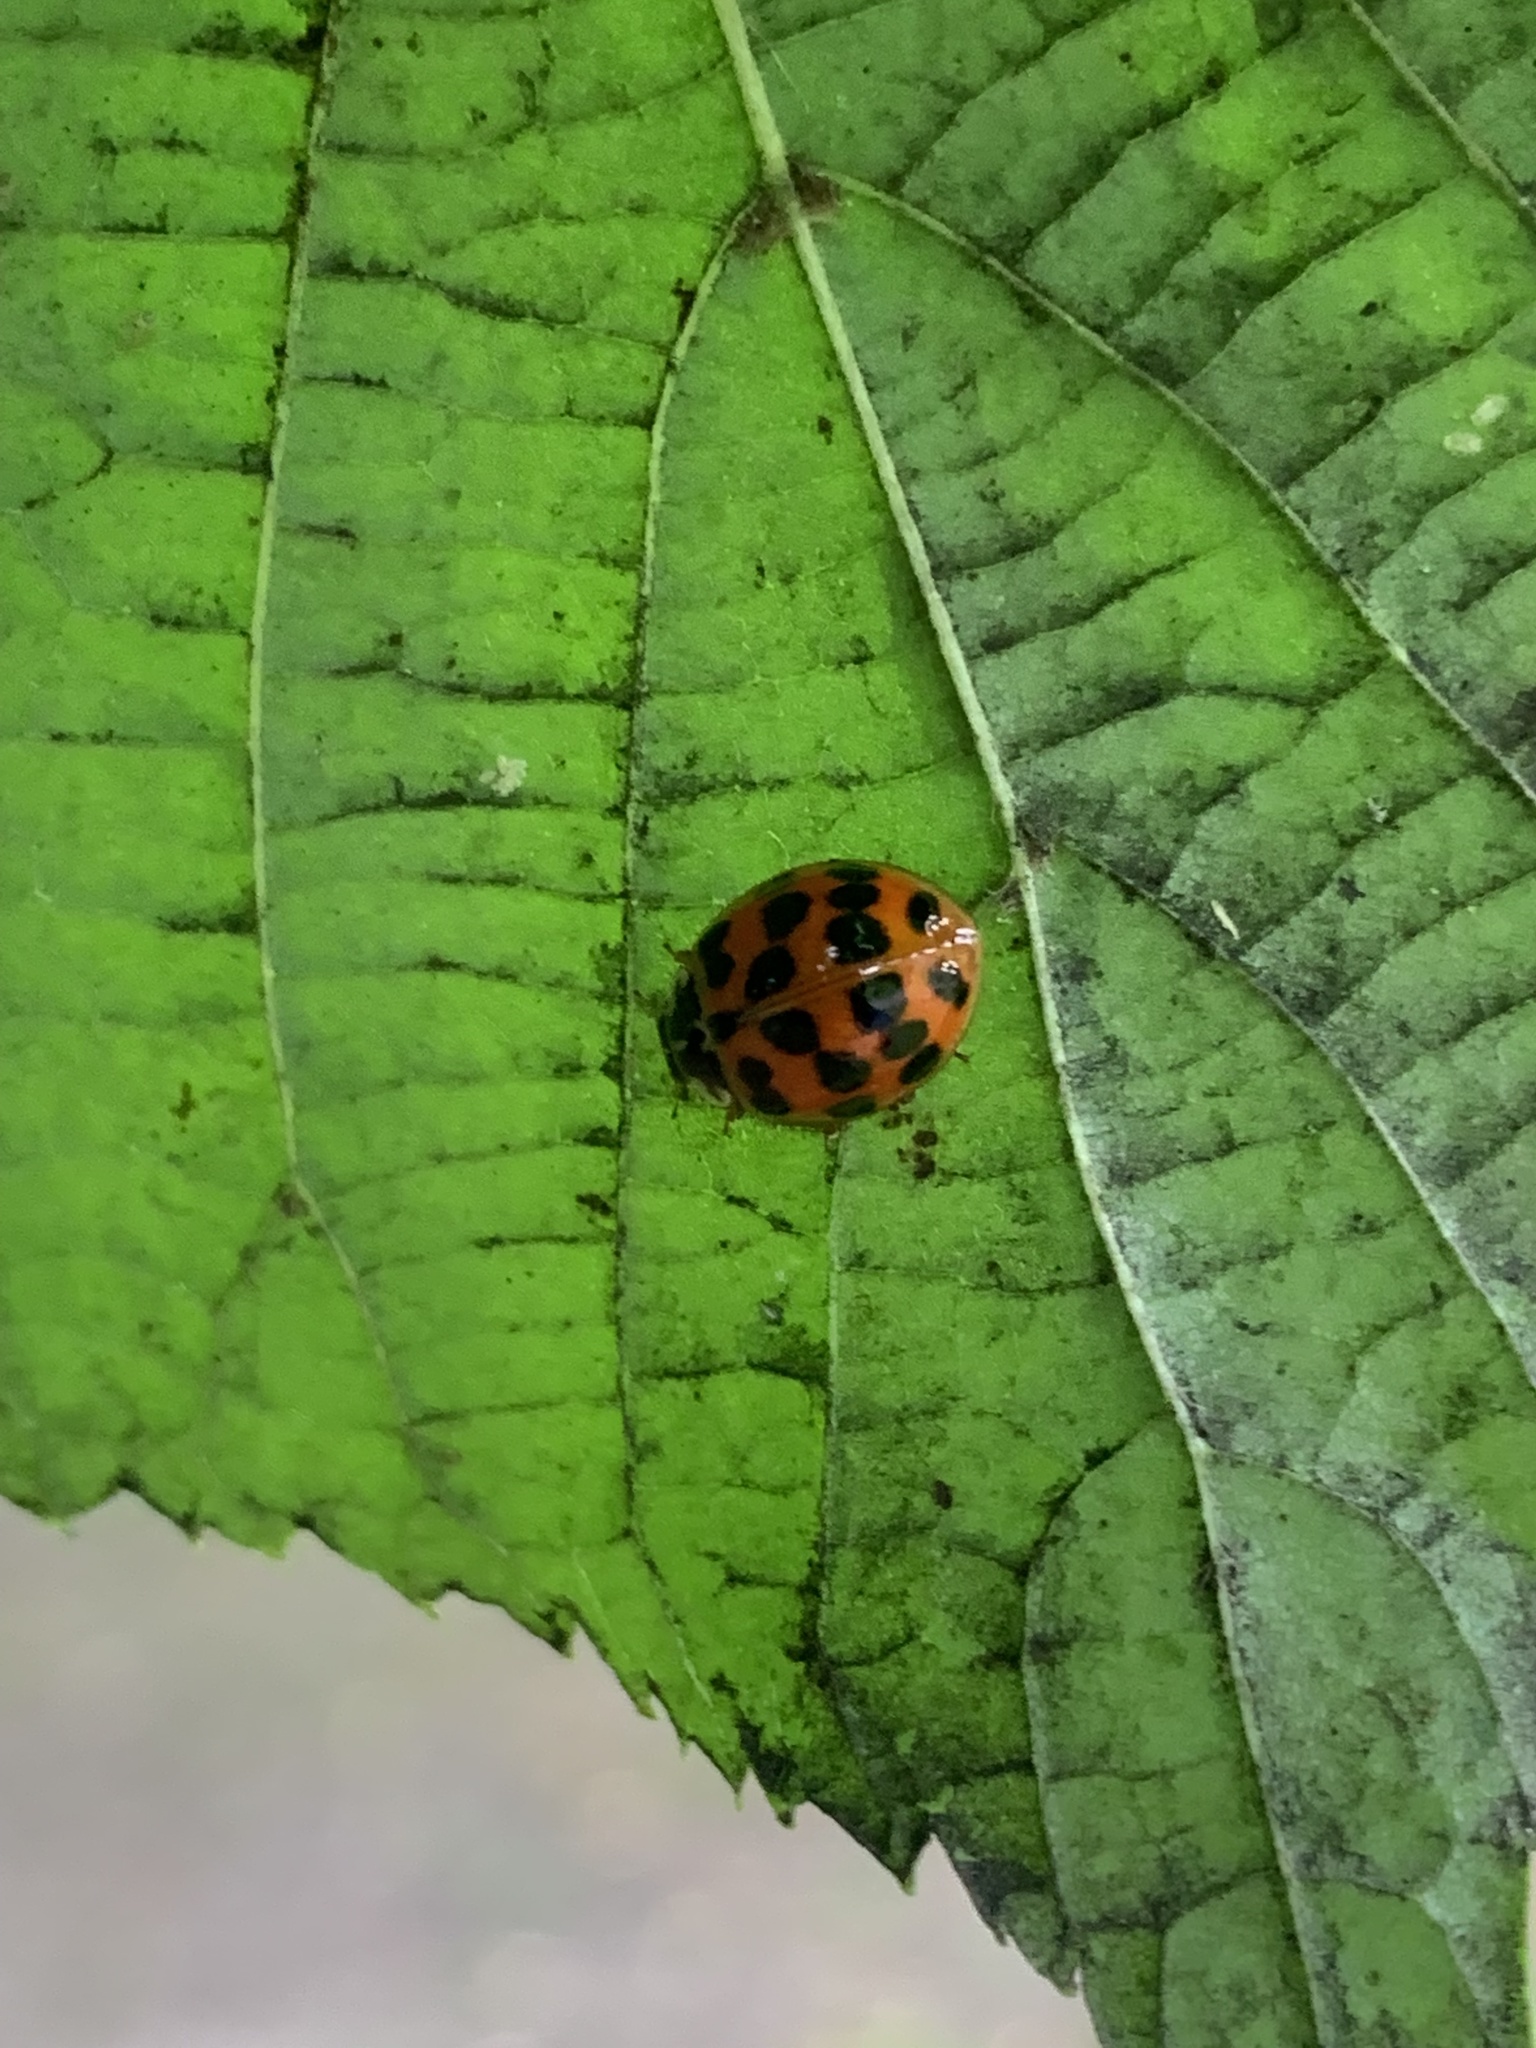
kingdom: Animalia
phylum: Arthropoda
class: Insecta
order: Coleoptera
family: Coccinellidae
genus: Harmonia
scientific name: Harmonia axyridis
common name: Harlequin ladybird
